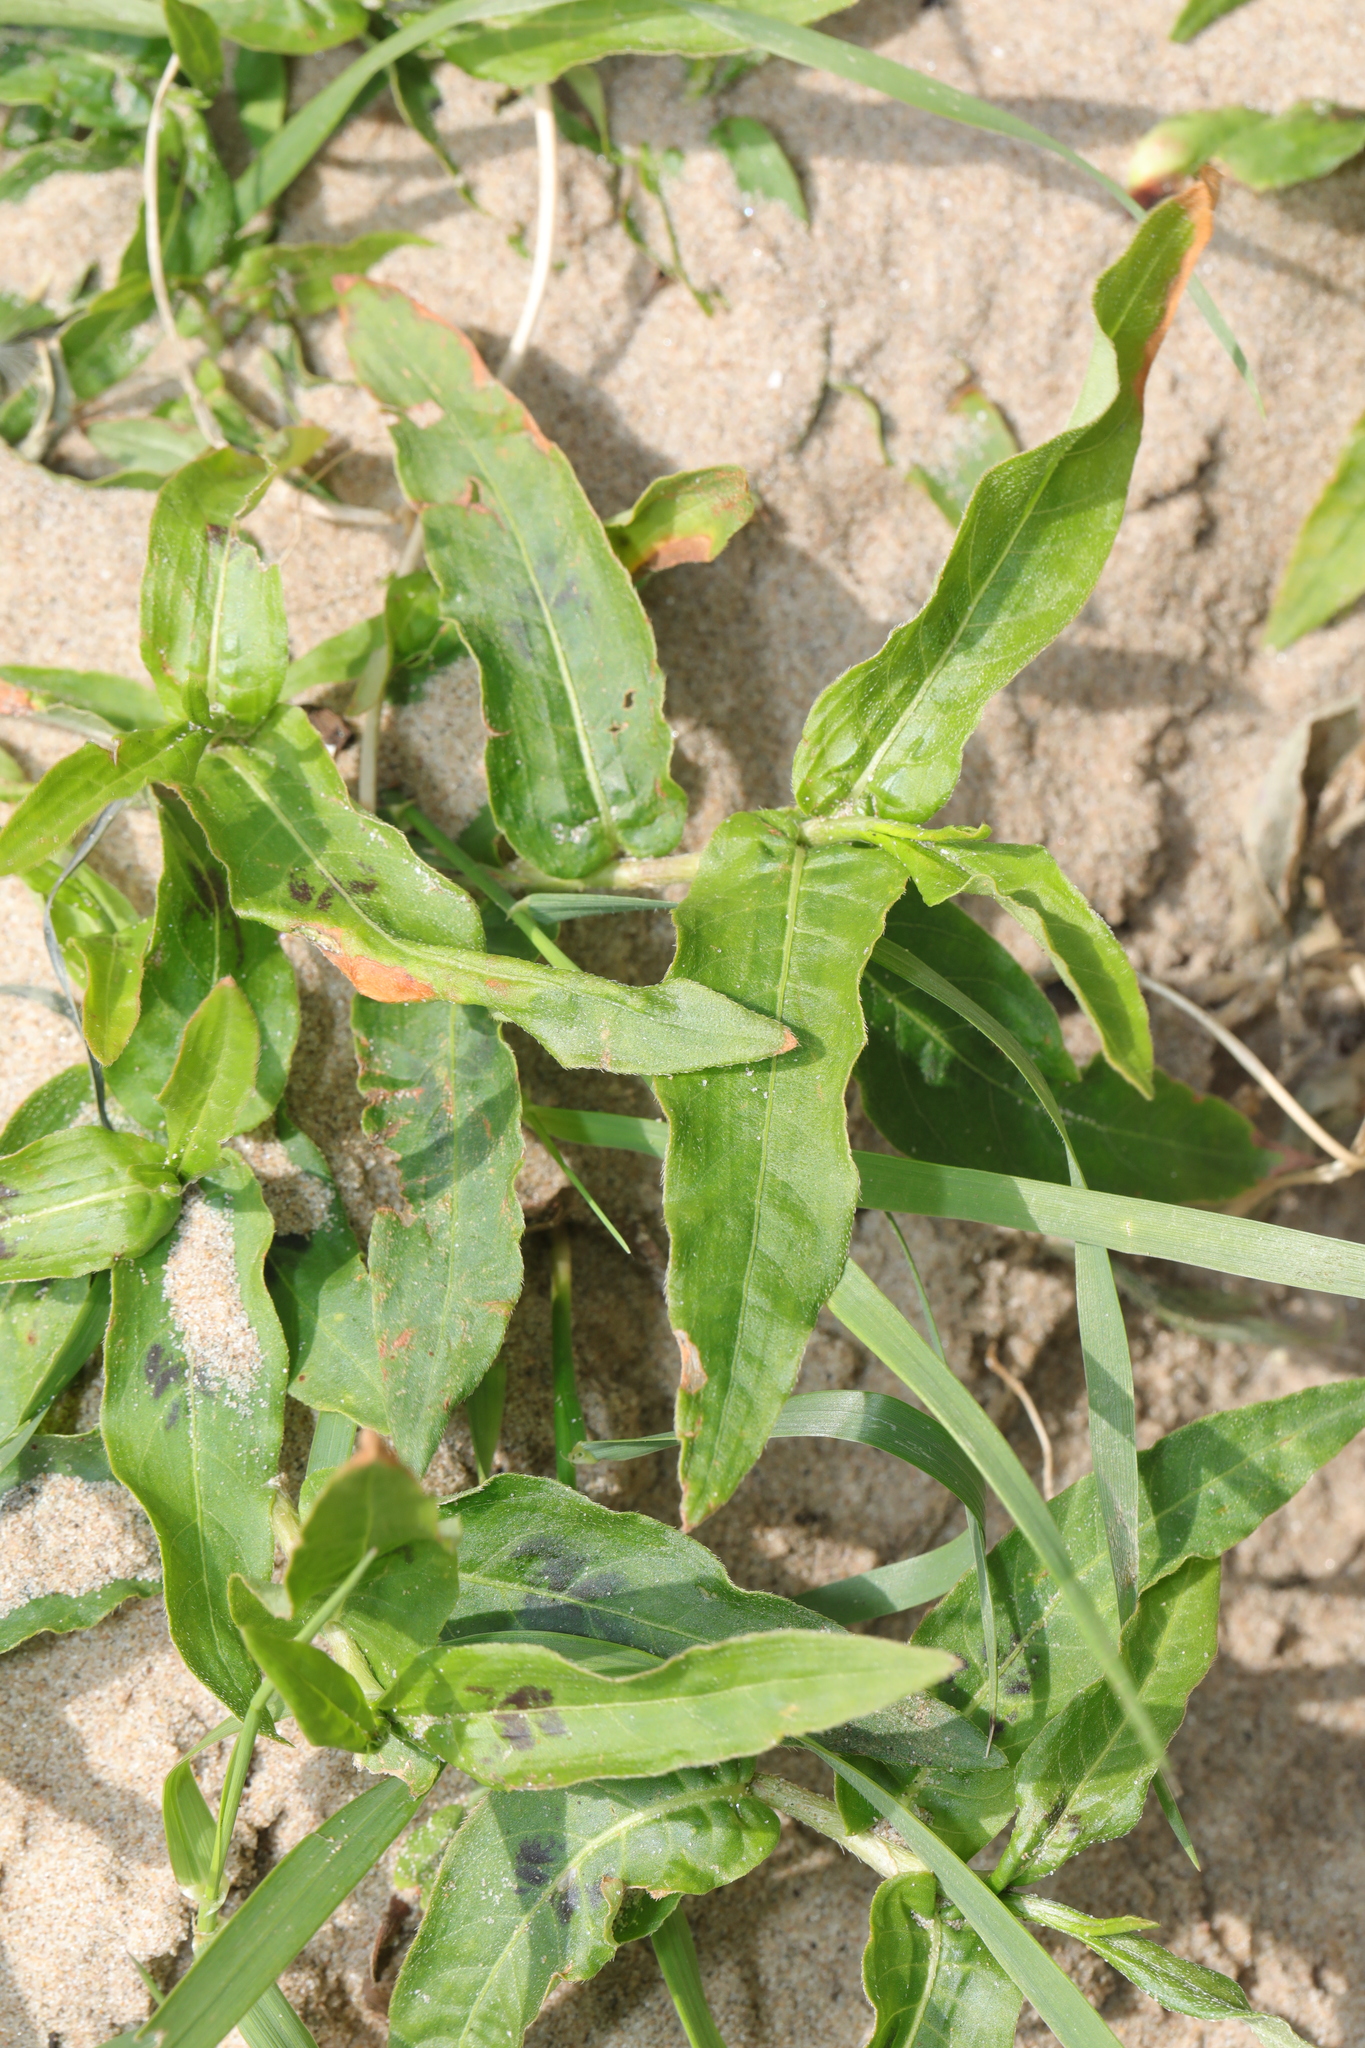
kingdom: Plantae
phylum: Tracheophyta
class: Magnoliopsida
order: Caryophyllales
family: Polygonaceae
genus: Persicaria
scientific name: Persicaria amphibia
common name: Amphibious bistort
